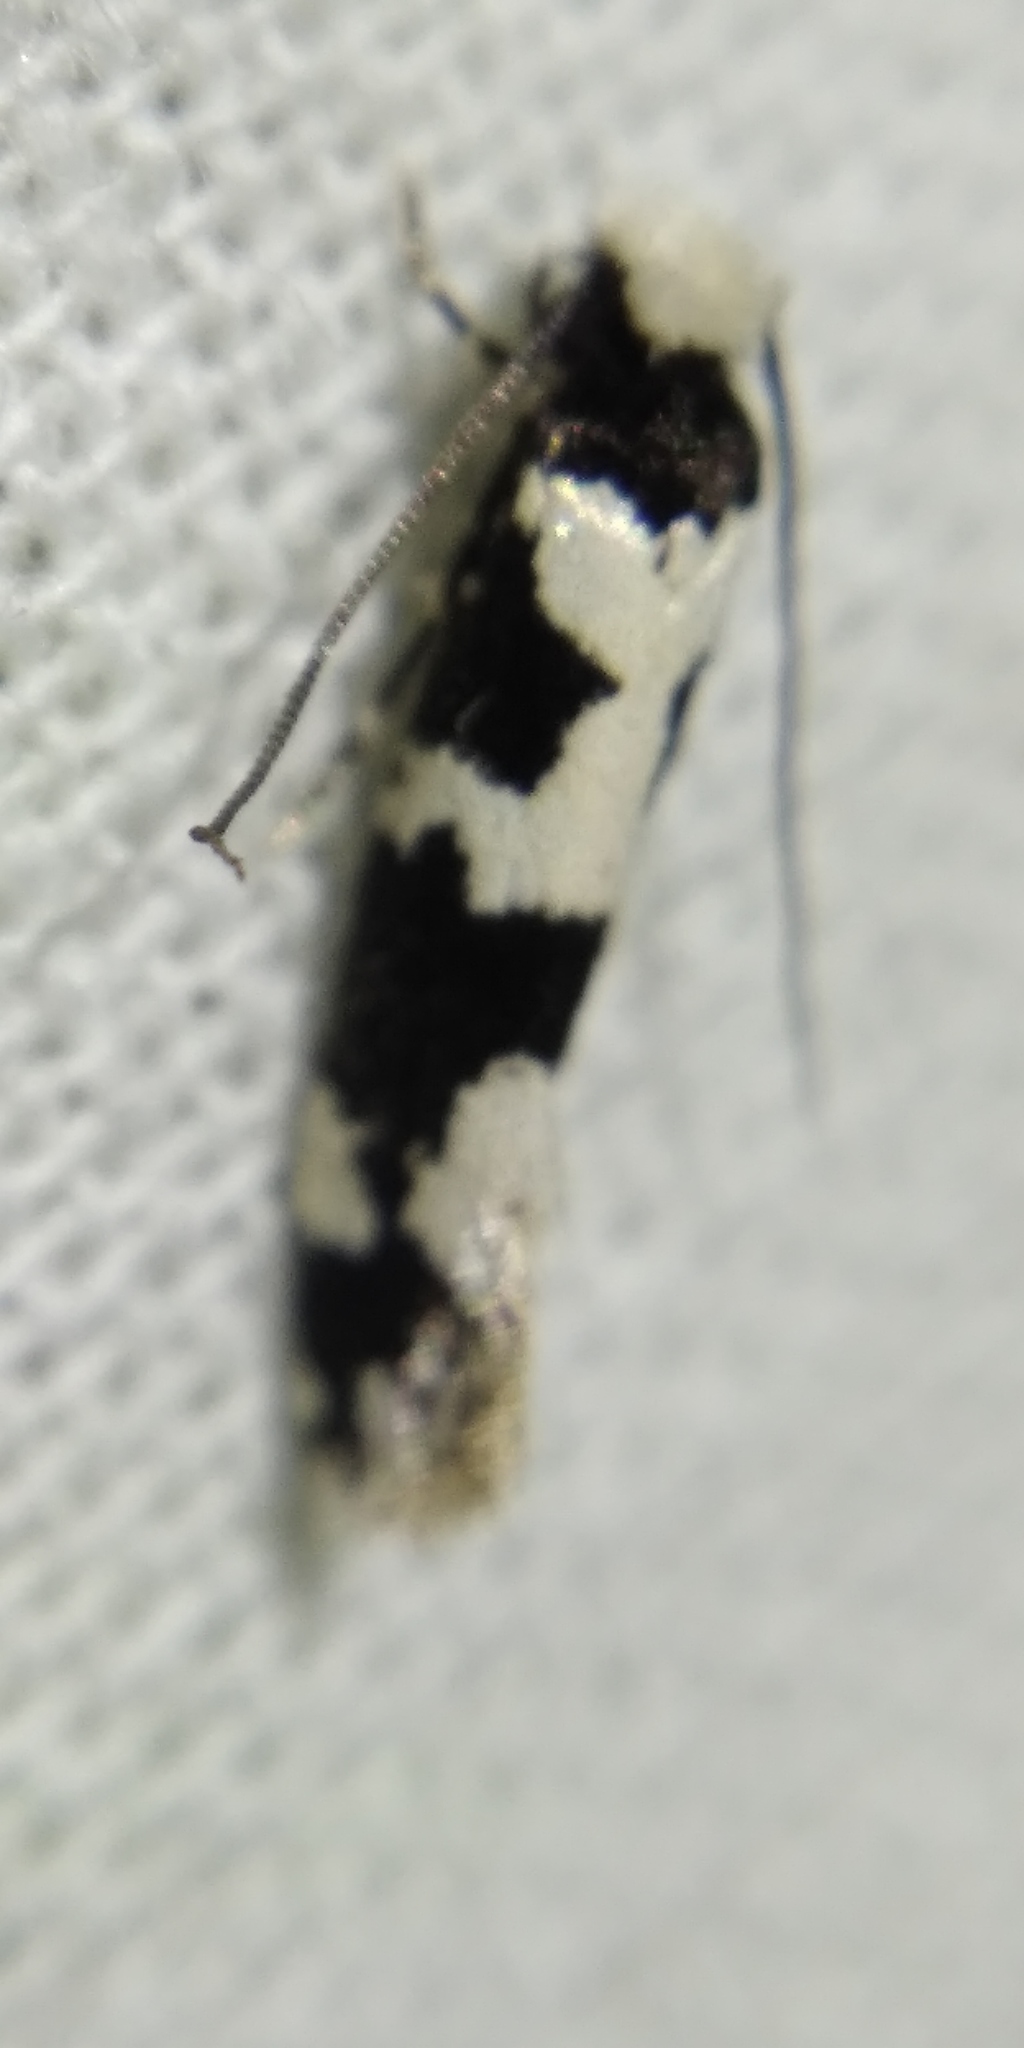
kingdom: Animalia
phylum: Arthropoda
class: Insecta
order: Lepidoptera
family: Tineidae
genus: Neurothaumasia
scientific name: Neurothaumasia ankerella
